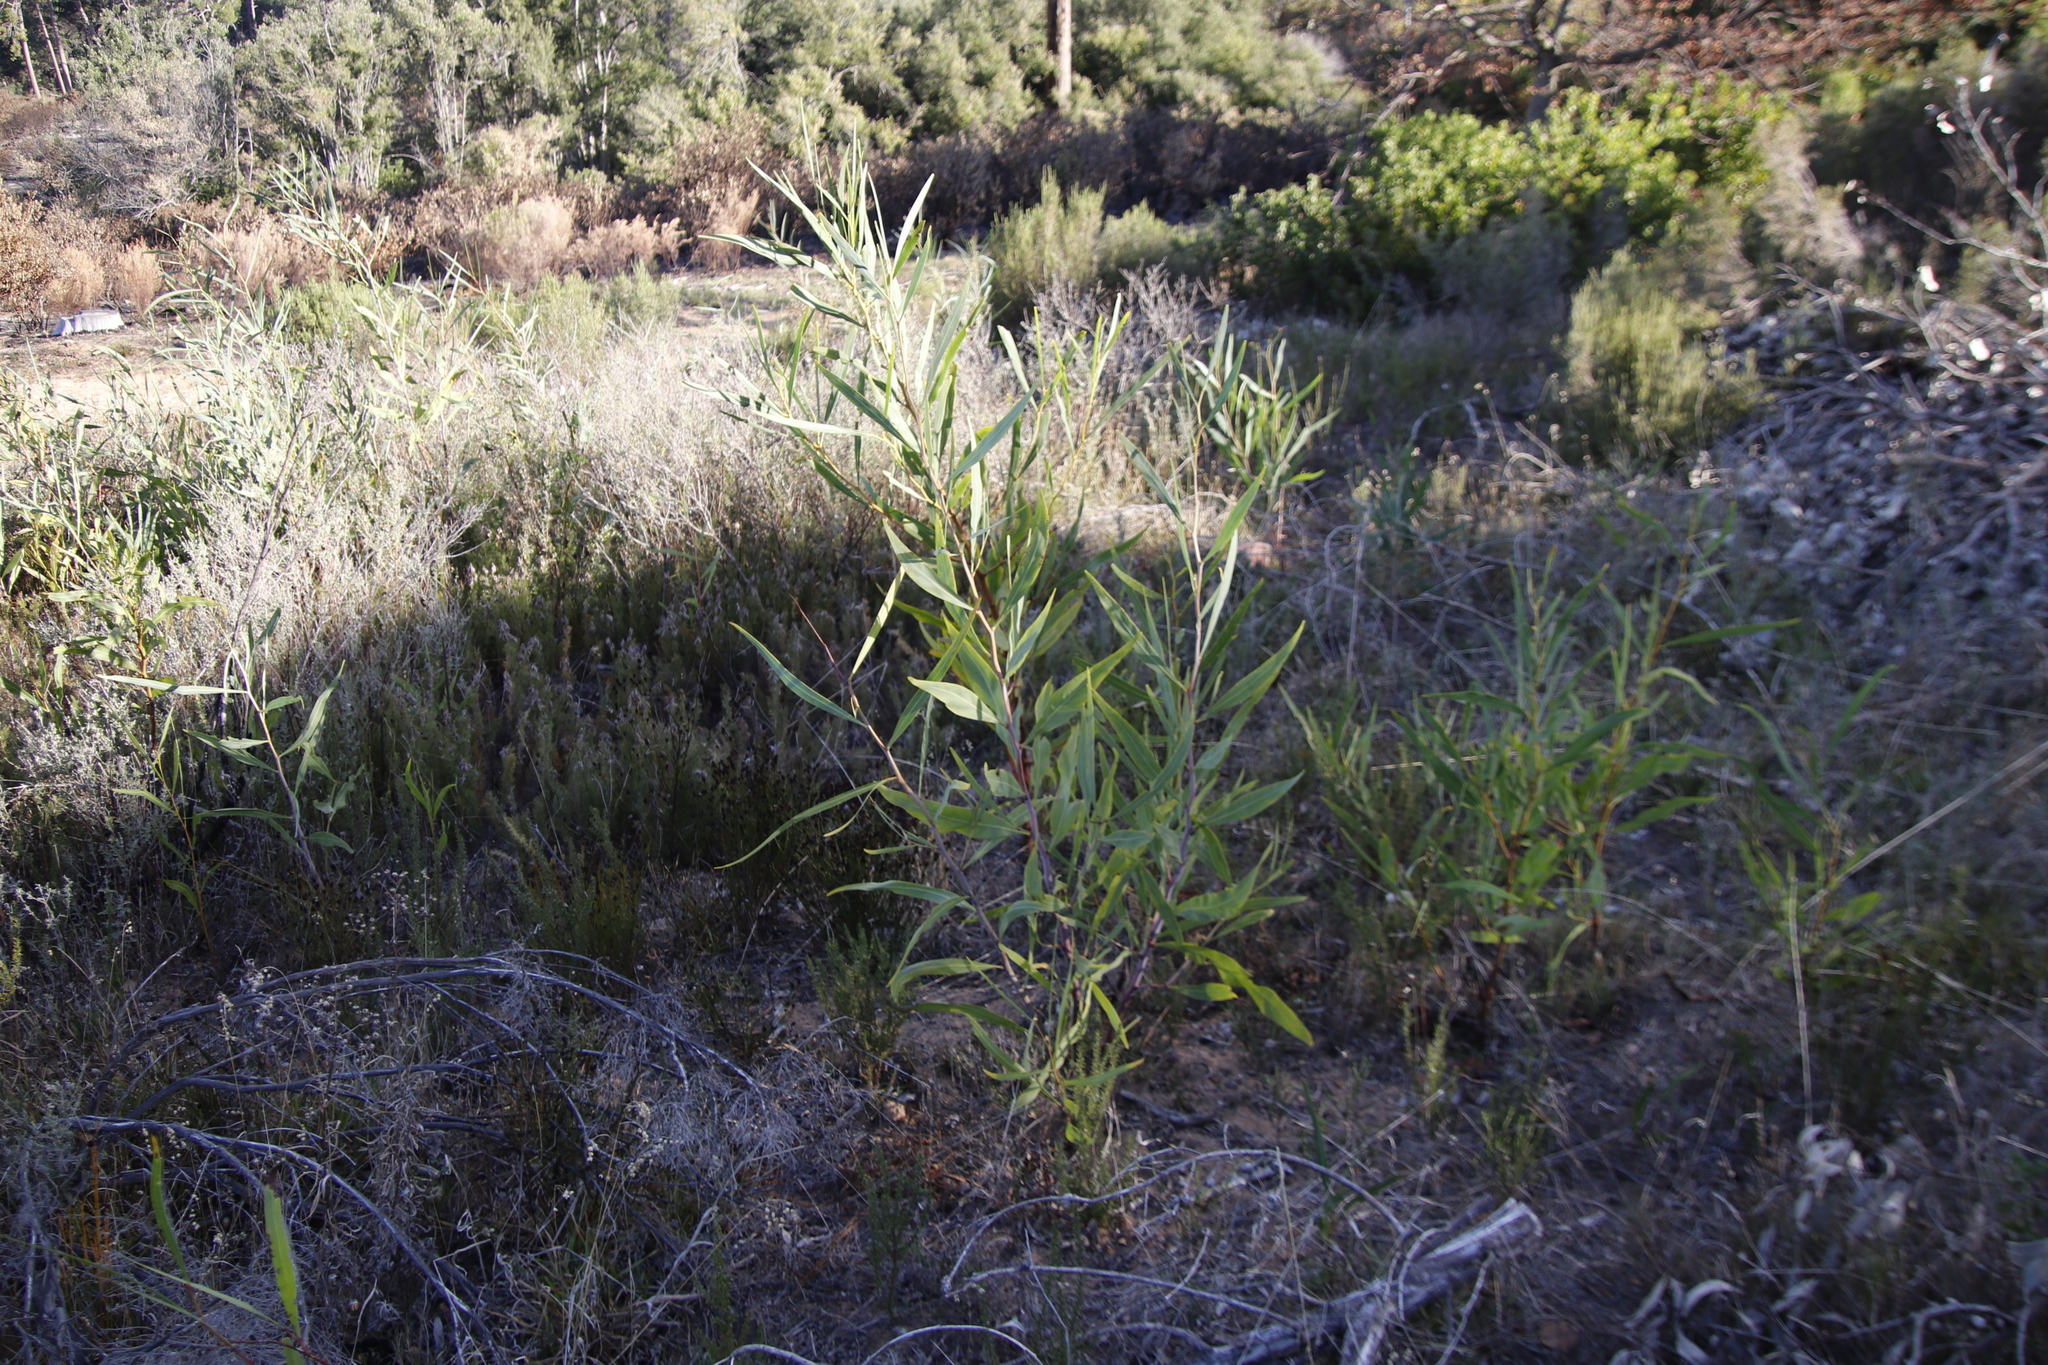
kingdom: Plantae
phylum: Tracheophyta
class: Magnoliopsida
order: Fabales
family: Fabaceae
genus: Acacia
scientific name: Acacia saligna
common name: Orange wattle
